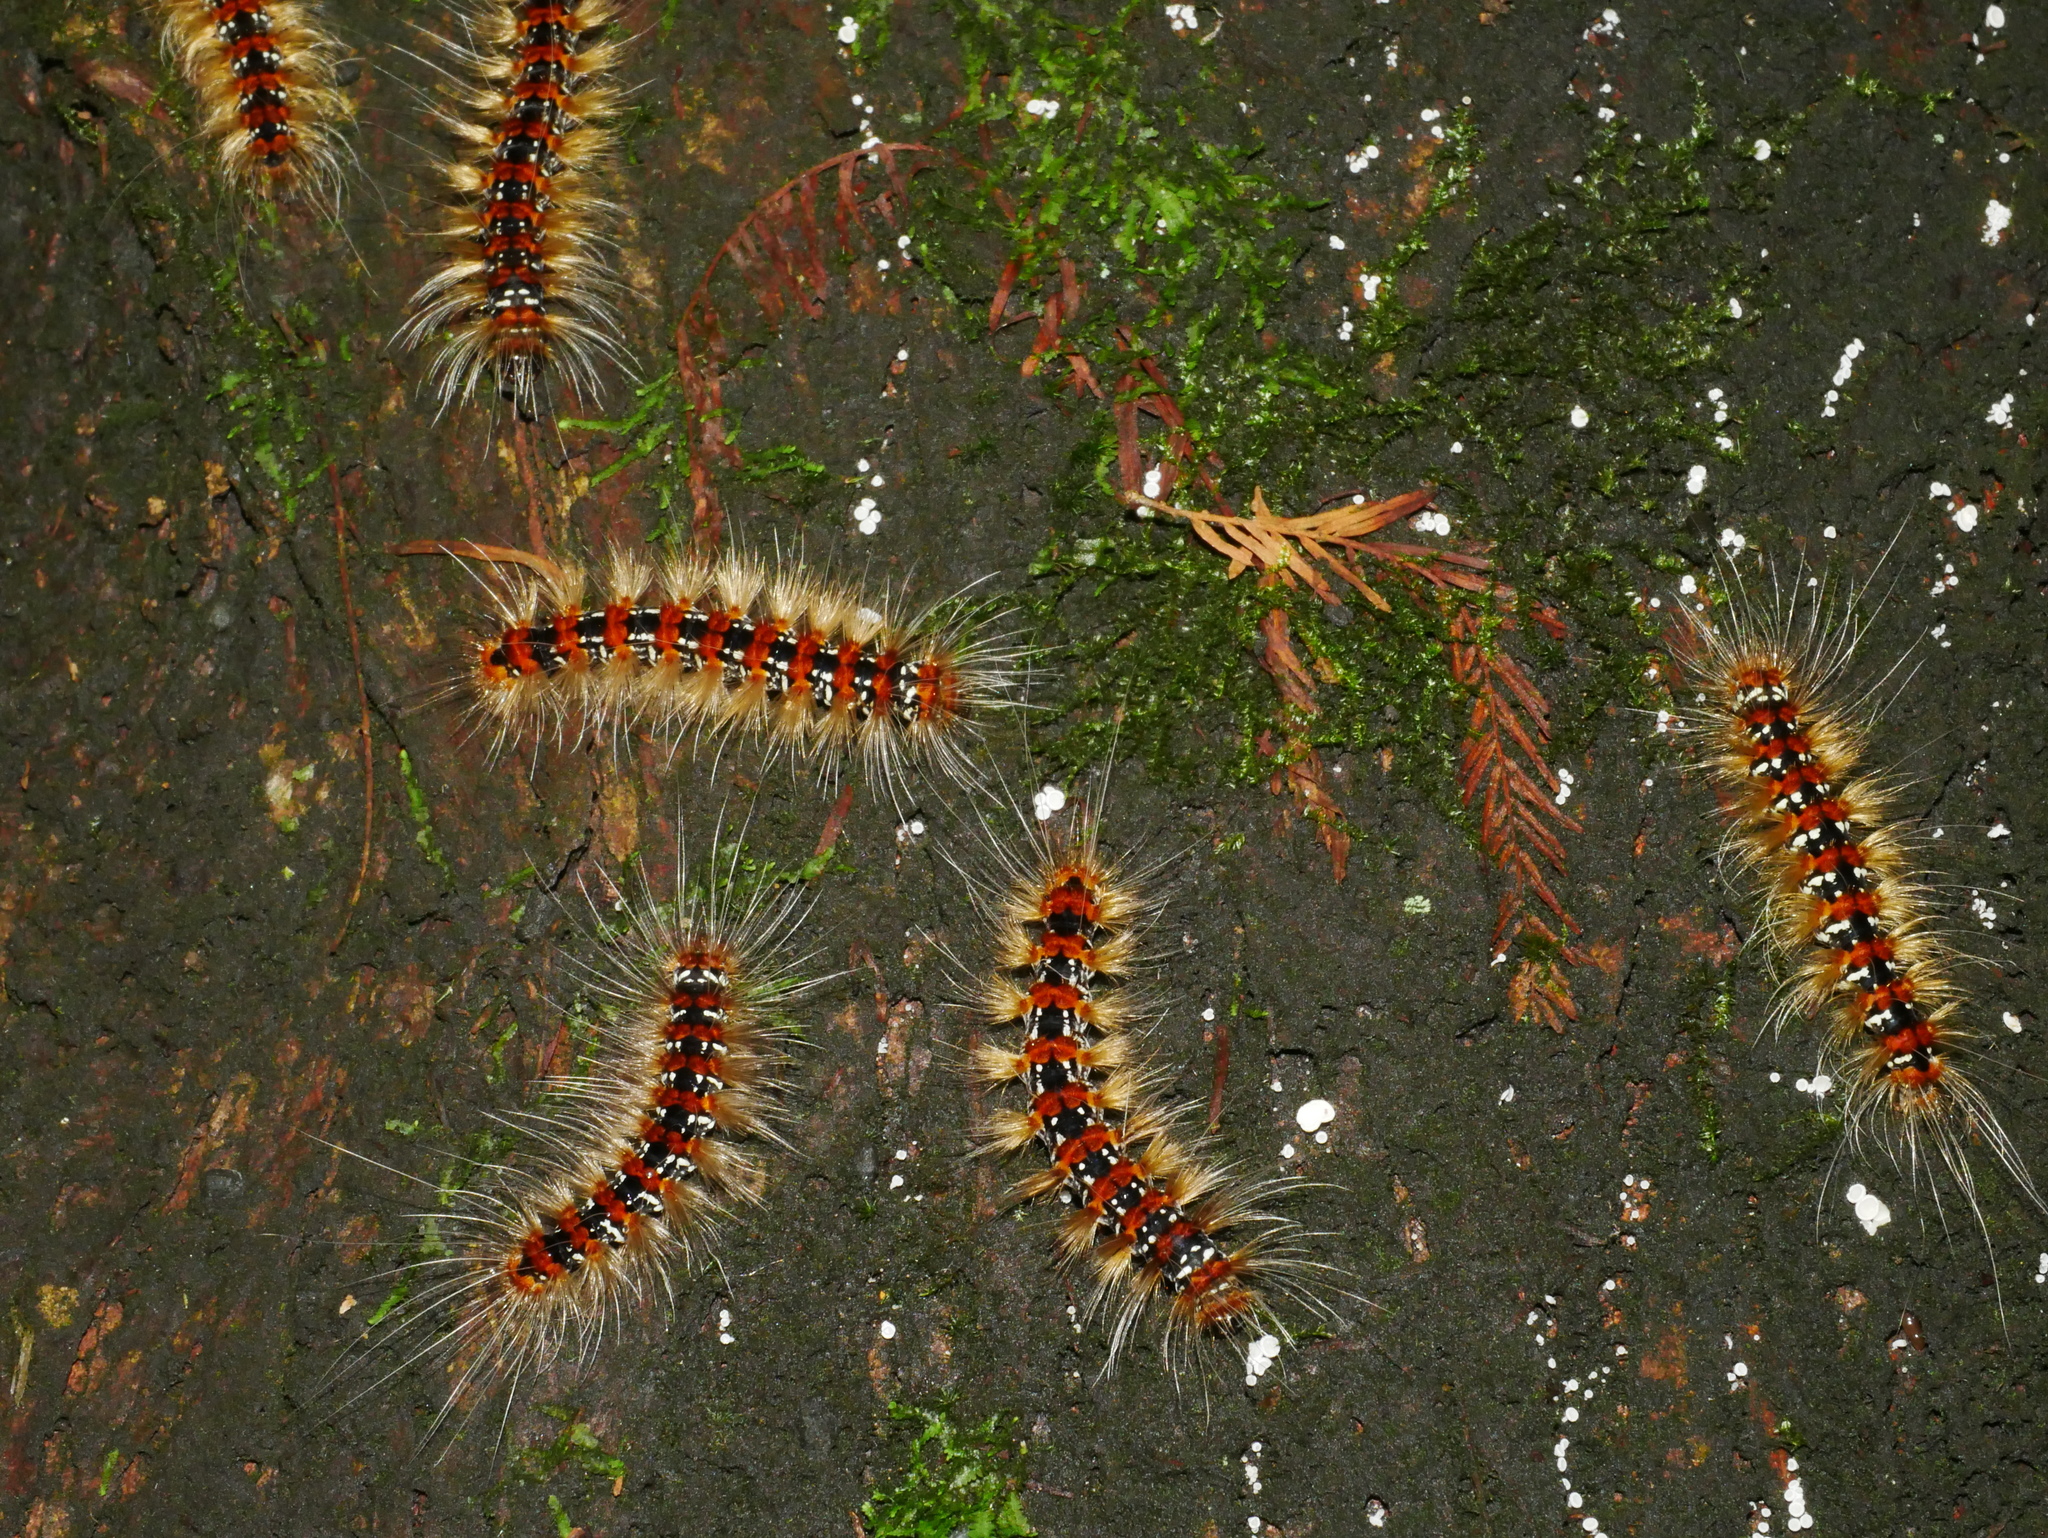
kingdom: Animalia
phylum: Arthropoda
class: Insecta
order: Lepidoptera
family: Erebidae
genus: Manulea
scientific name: Manulea hokopo
